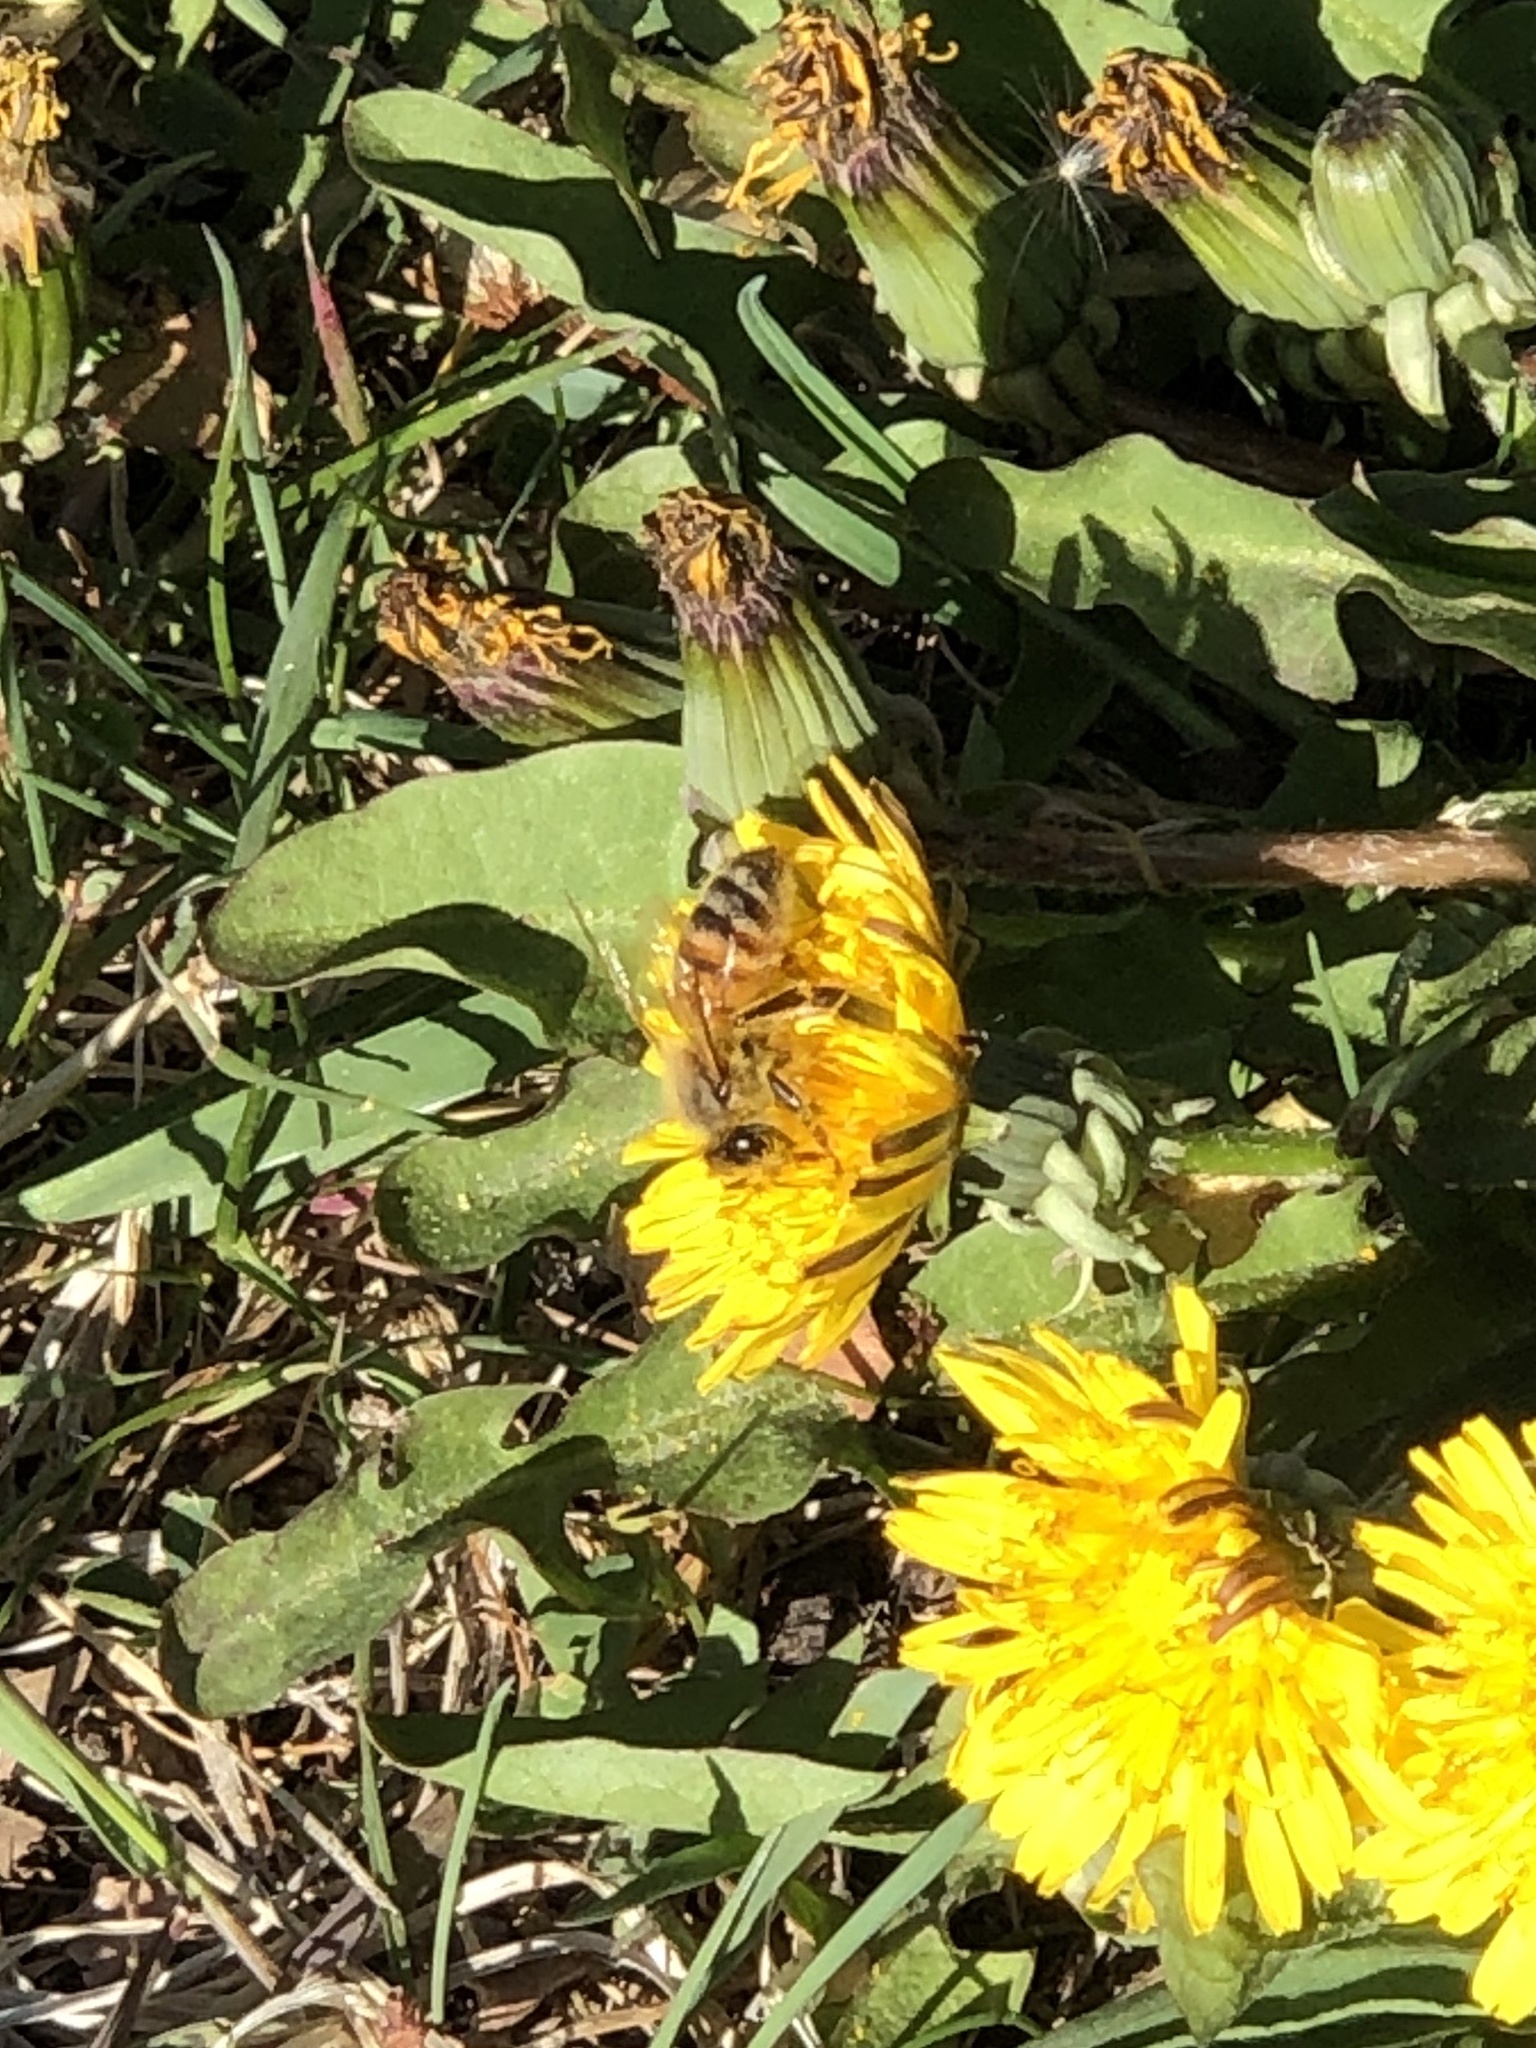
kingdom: Animalia
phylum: Arthropoda
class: Insecta
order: Hymenoptera
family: Apidae
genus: Apis
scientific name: Apis mellifera
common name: Honey bee
